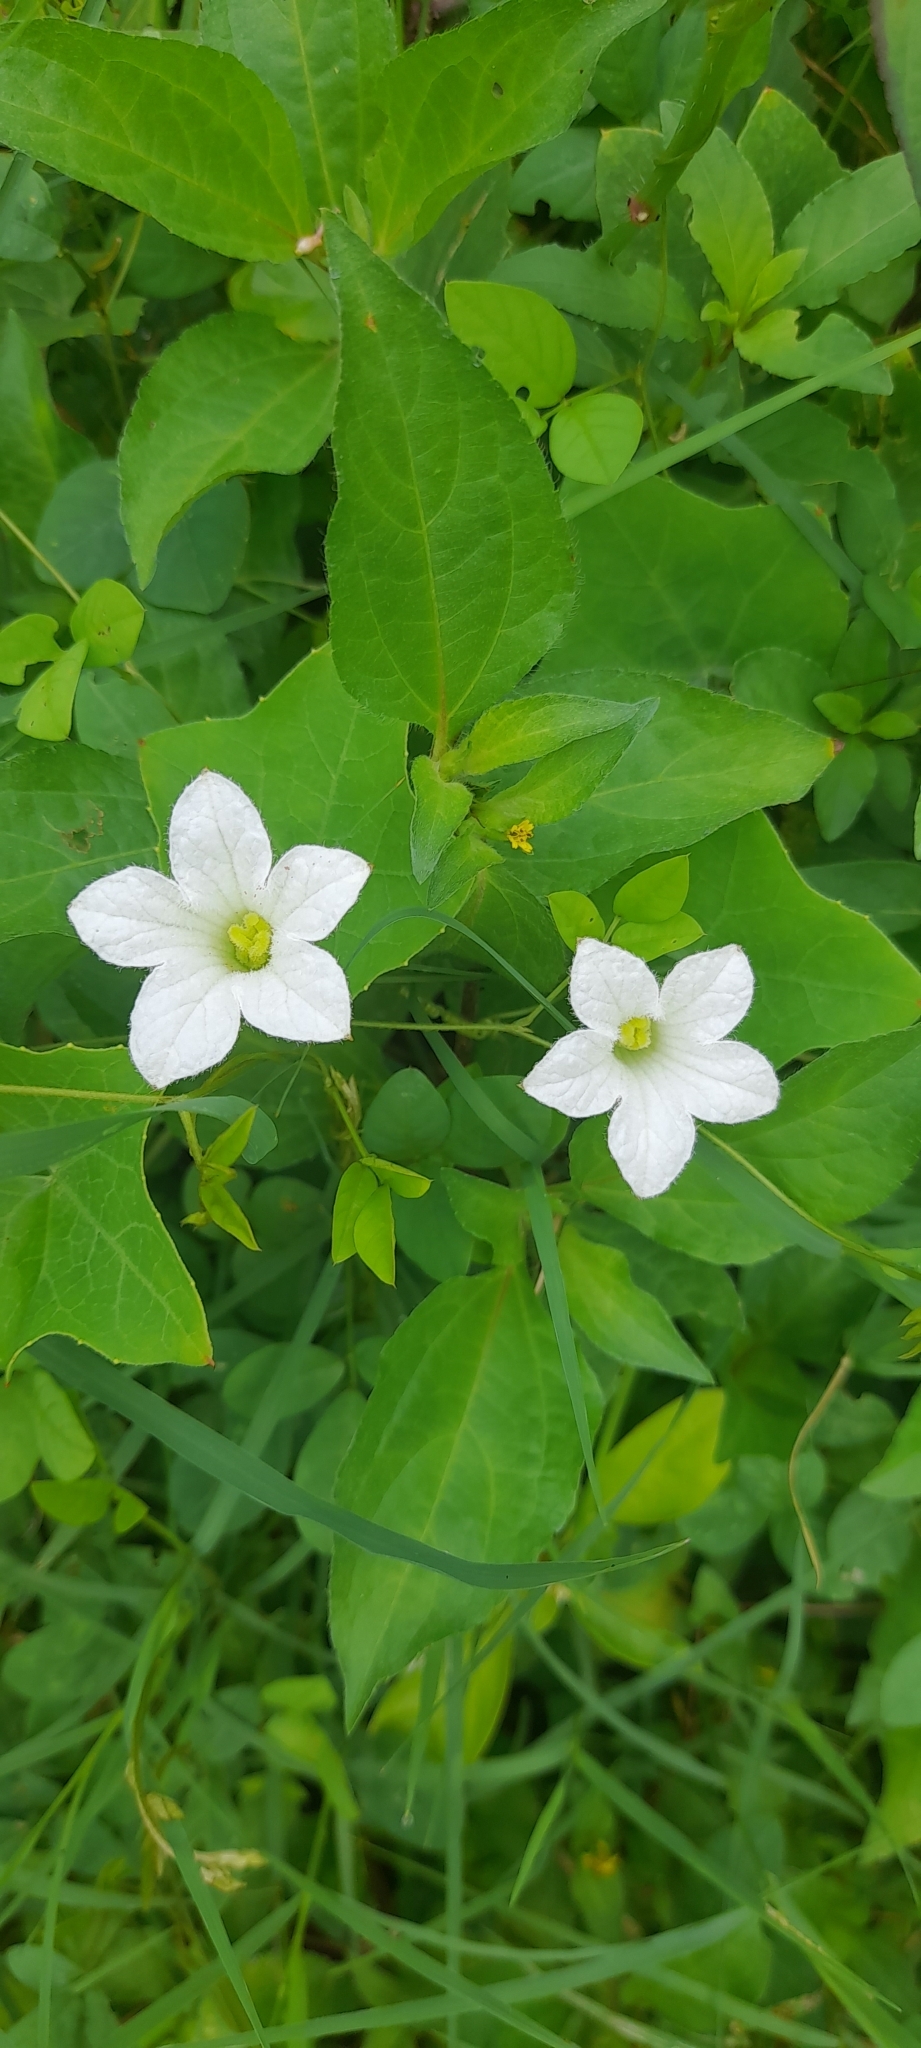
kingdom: Plantae
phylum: Tracheophyta
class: Magnoliopsida
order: Cucurbitales
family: Cucurbitaceae
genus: Coccinia
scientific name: Coccinia grandis
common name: Ivy gourd
